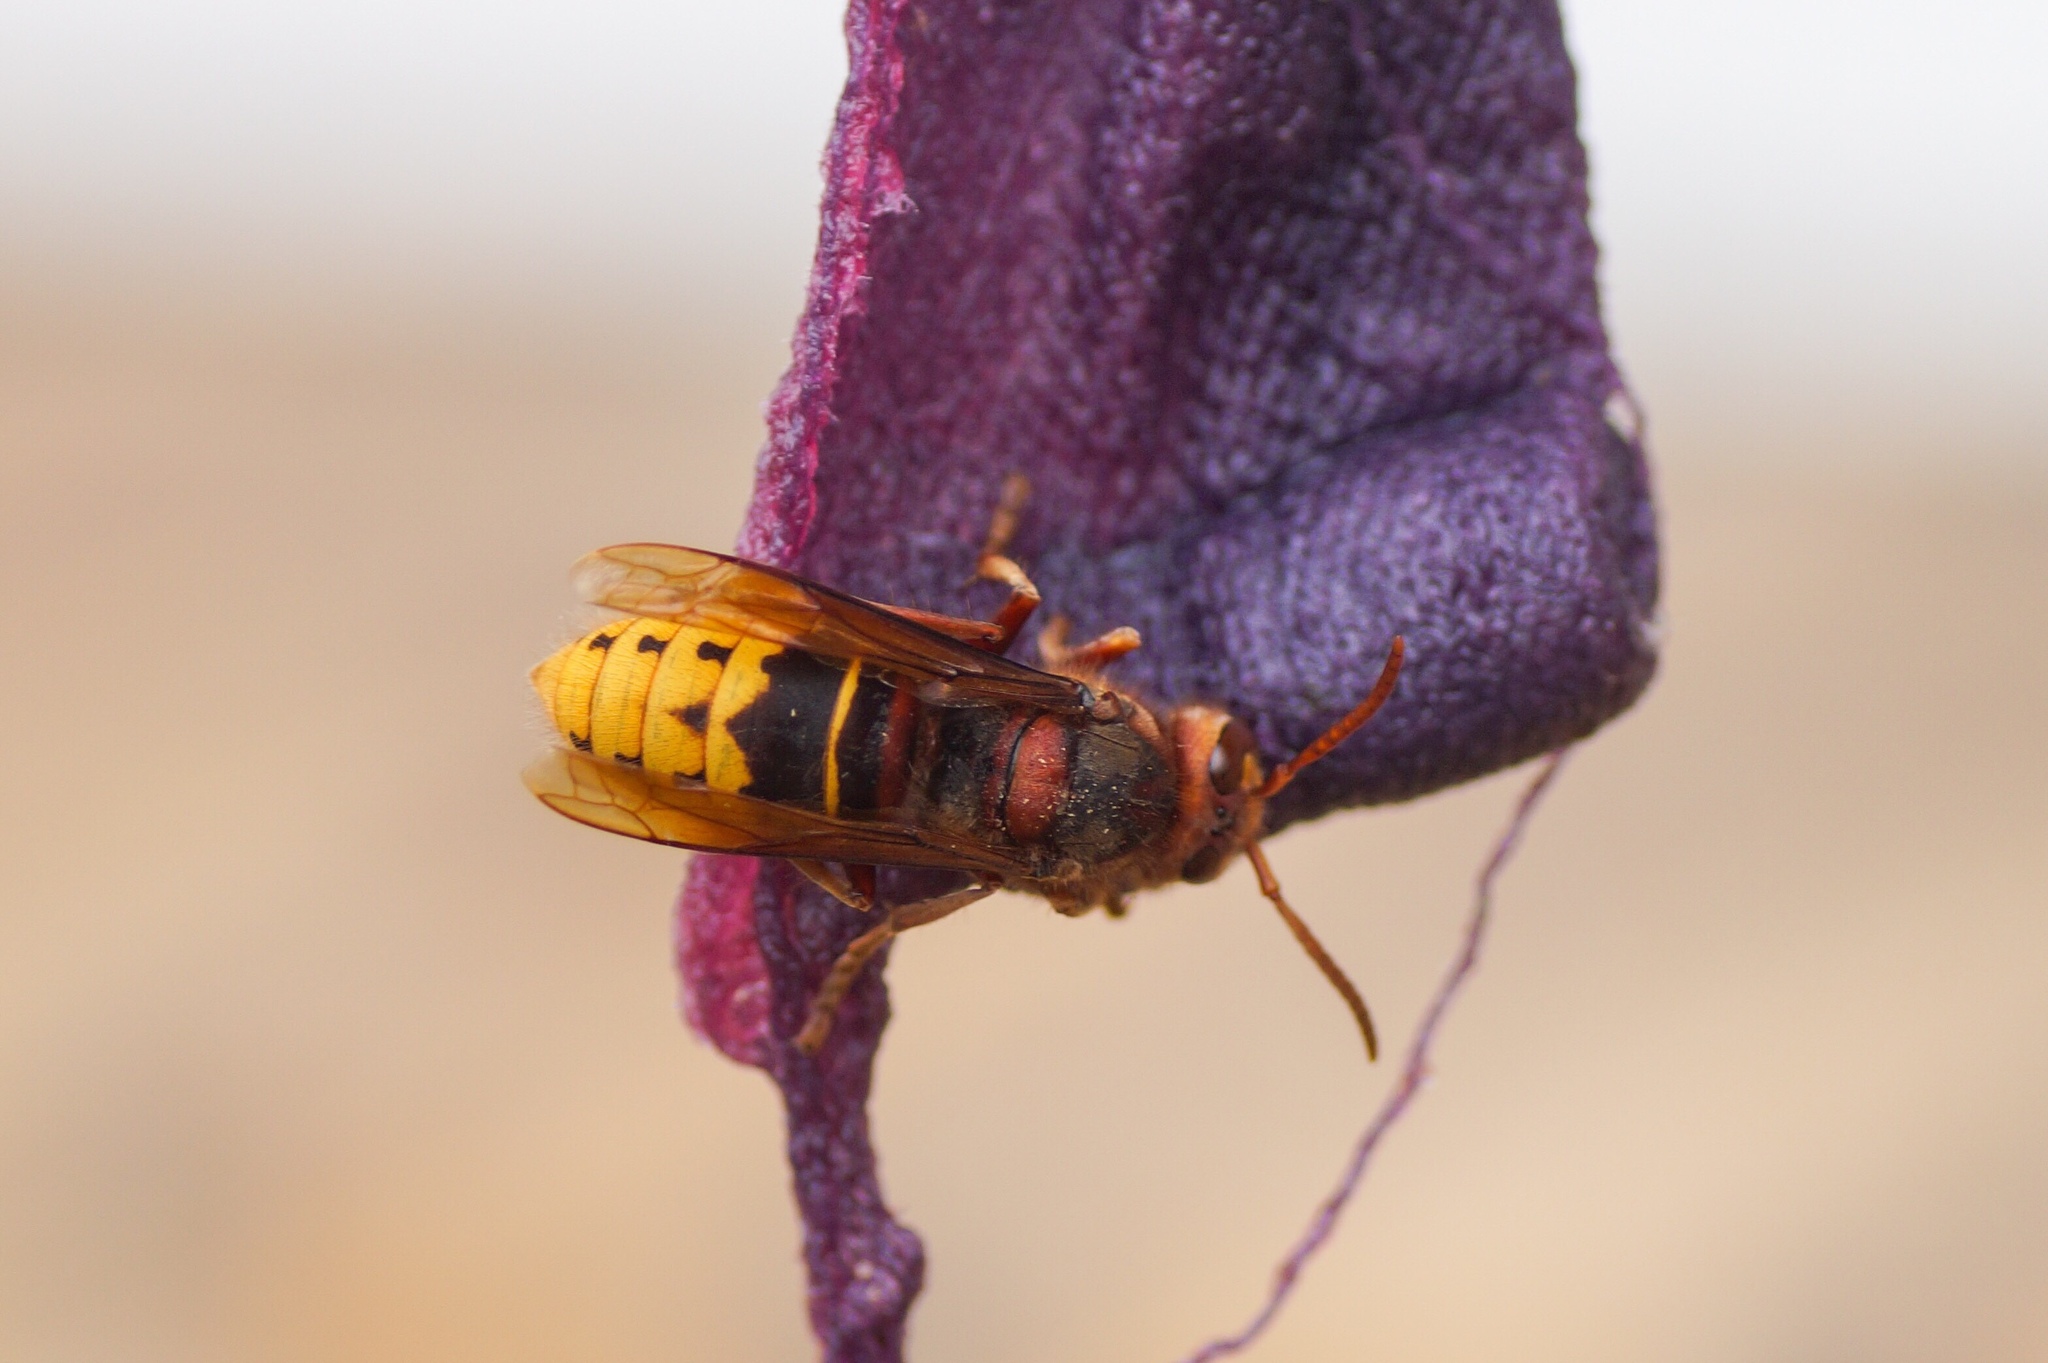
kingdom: Animalia
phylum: Arthropoda
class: Insecta
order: Hymenoptera
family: Vespidae
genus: Vespa
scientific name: Vespa crabro
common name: Hornet
